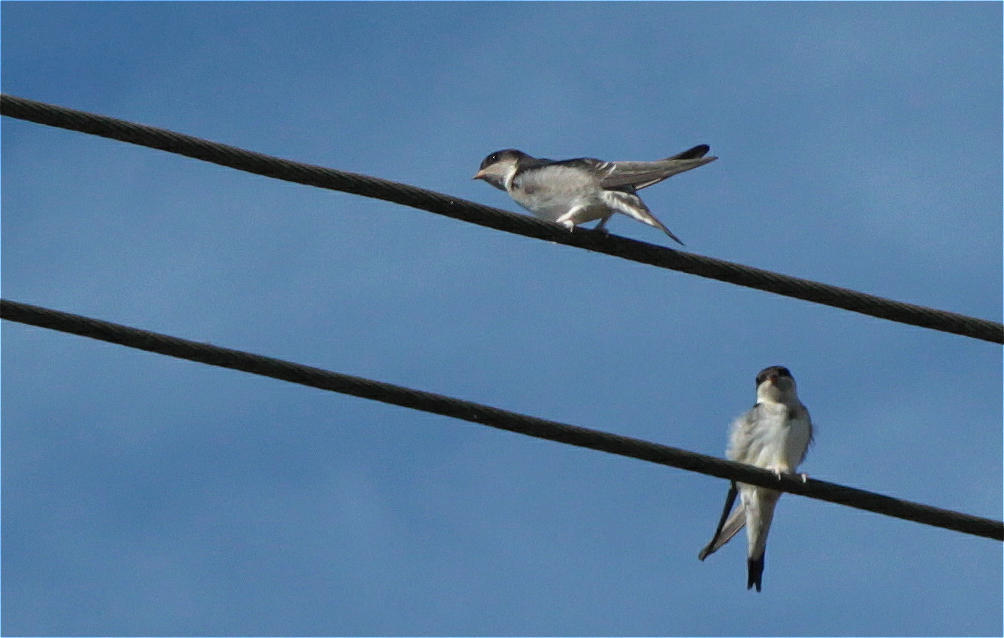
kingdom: Animalia
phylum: Chordata
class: Aves
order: Passeriformes
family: Hirundinidae
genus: Delichon
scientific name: Delichon urbicum
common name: Common house martin
